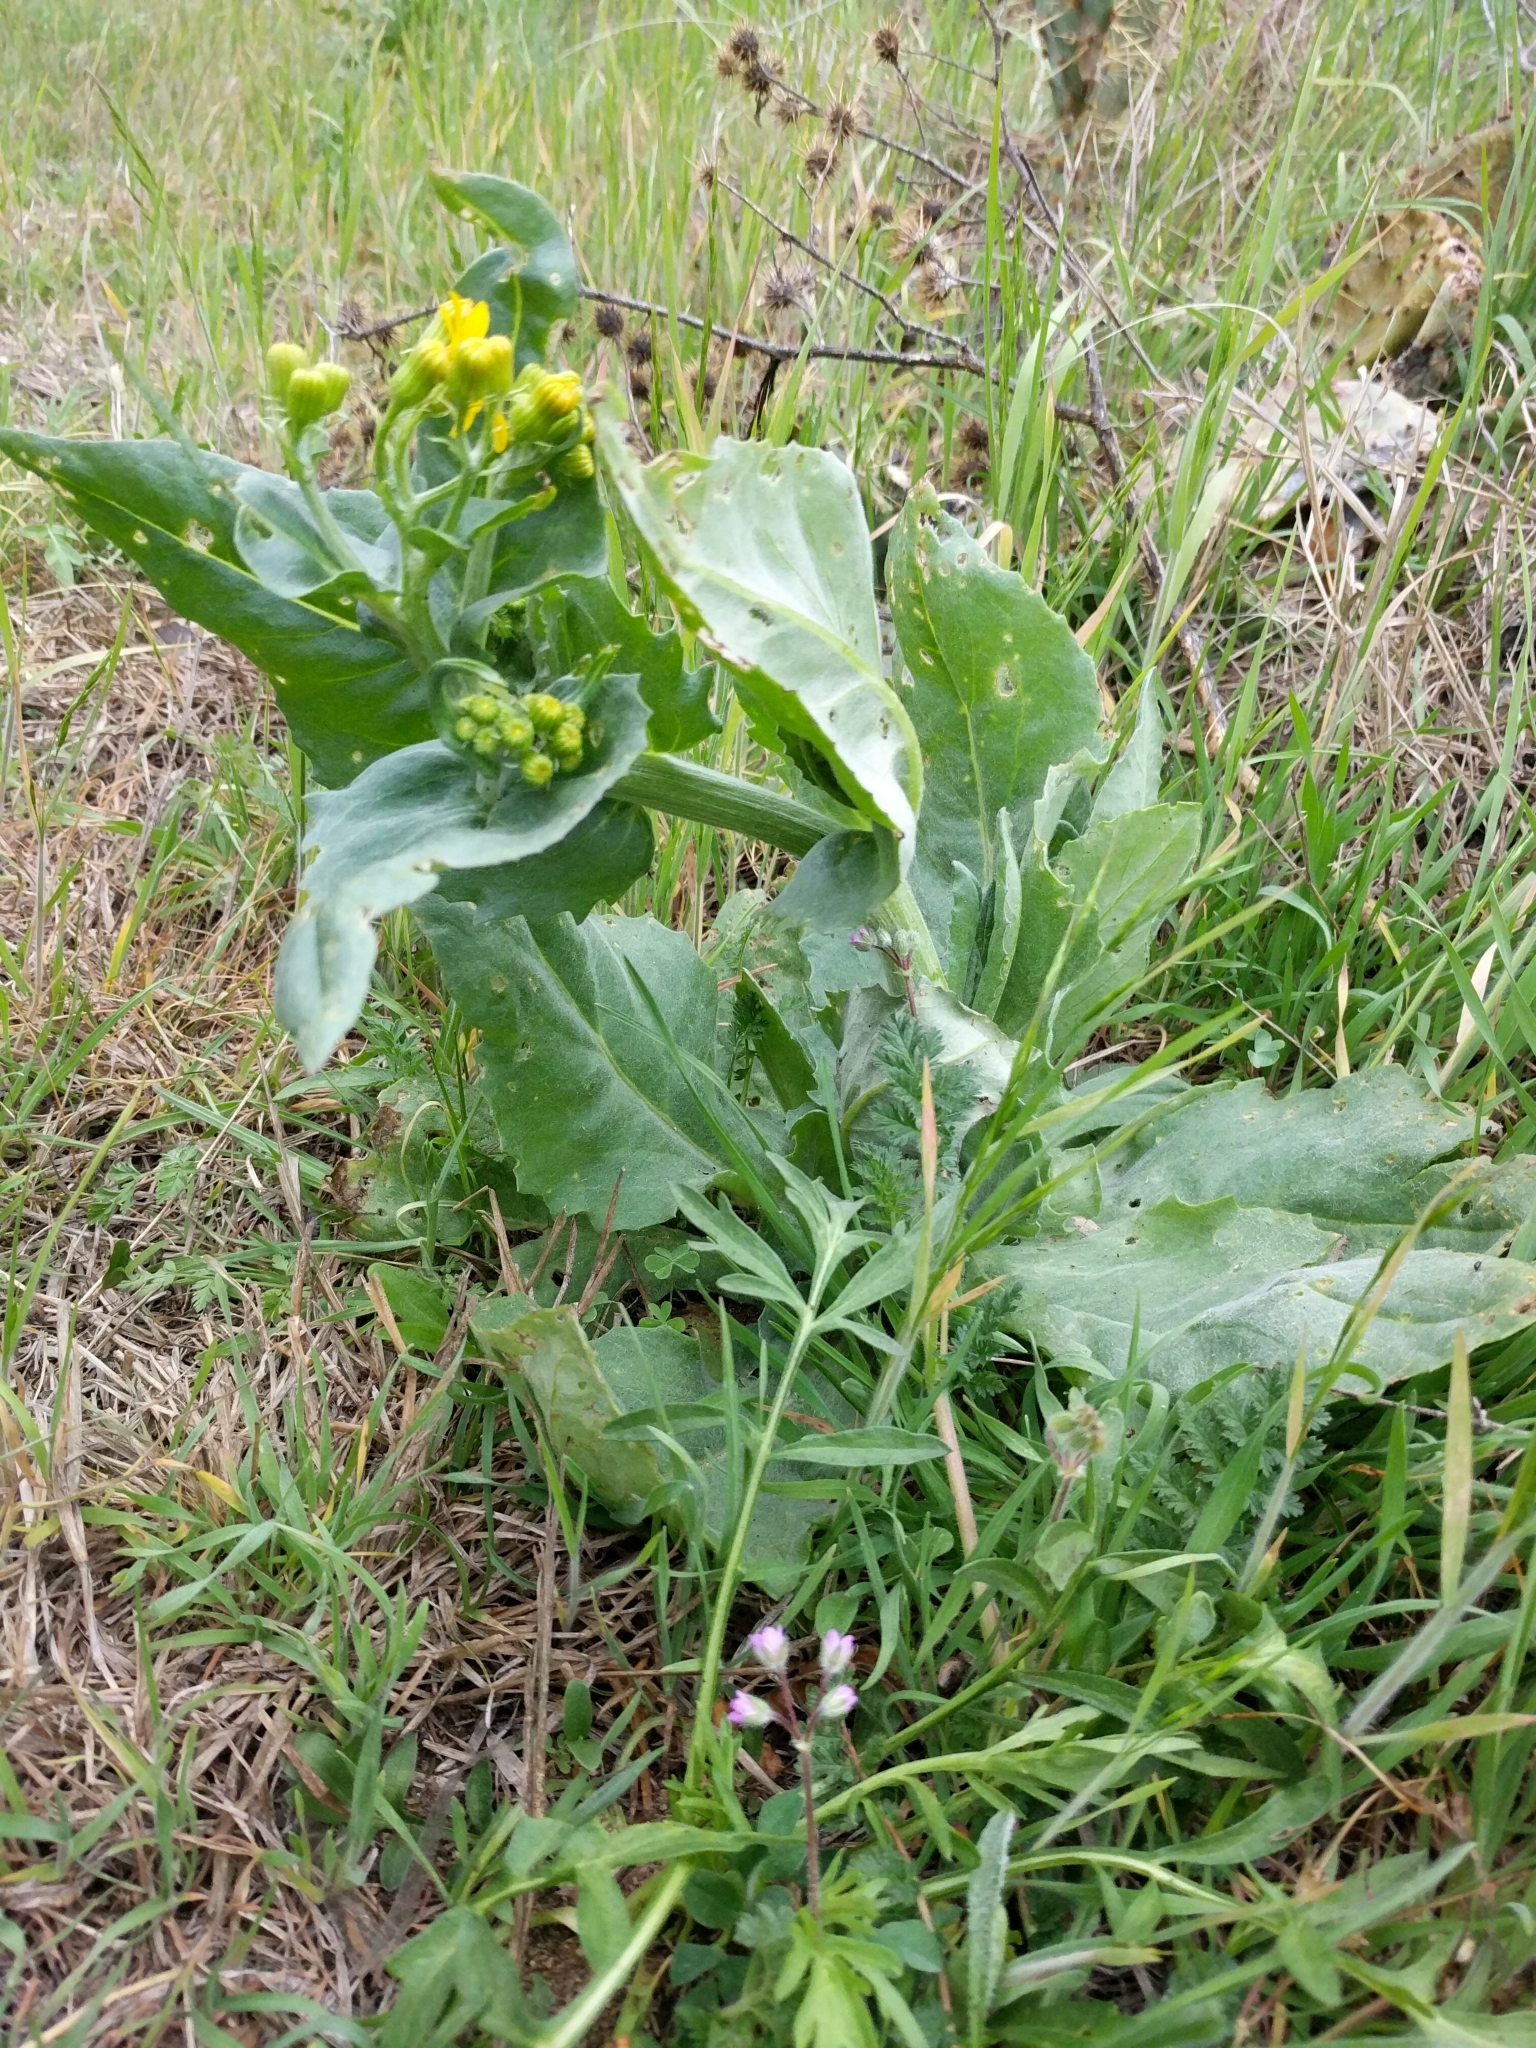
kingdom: Plantae
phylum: Tracheophyta
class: Magnoliopsida
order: Asterales
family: Asteraceae
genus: Senecio
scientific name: Senecio ampullaceus
